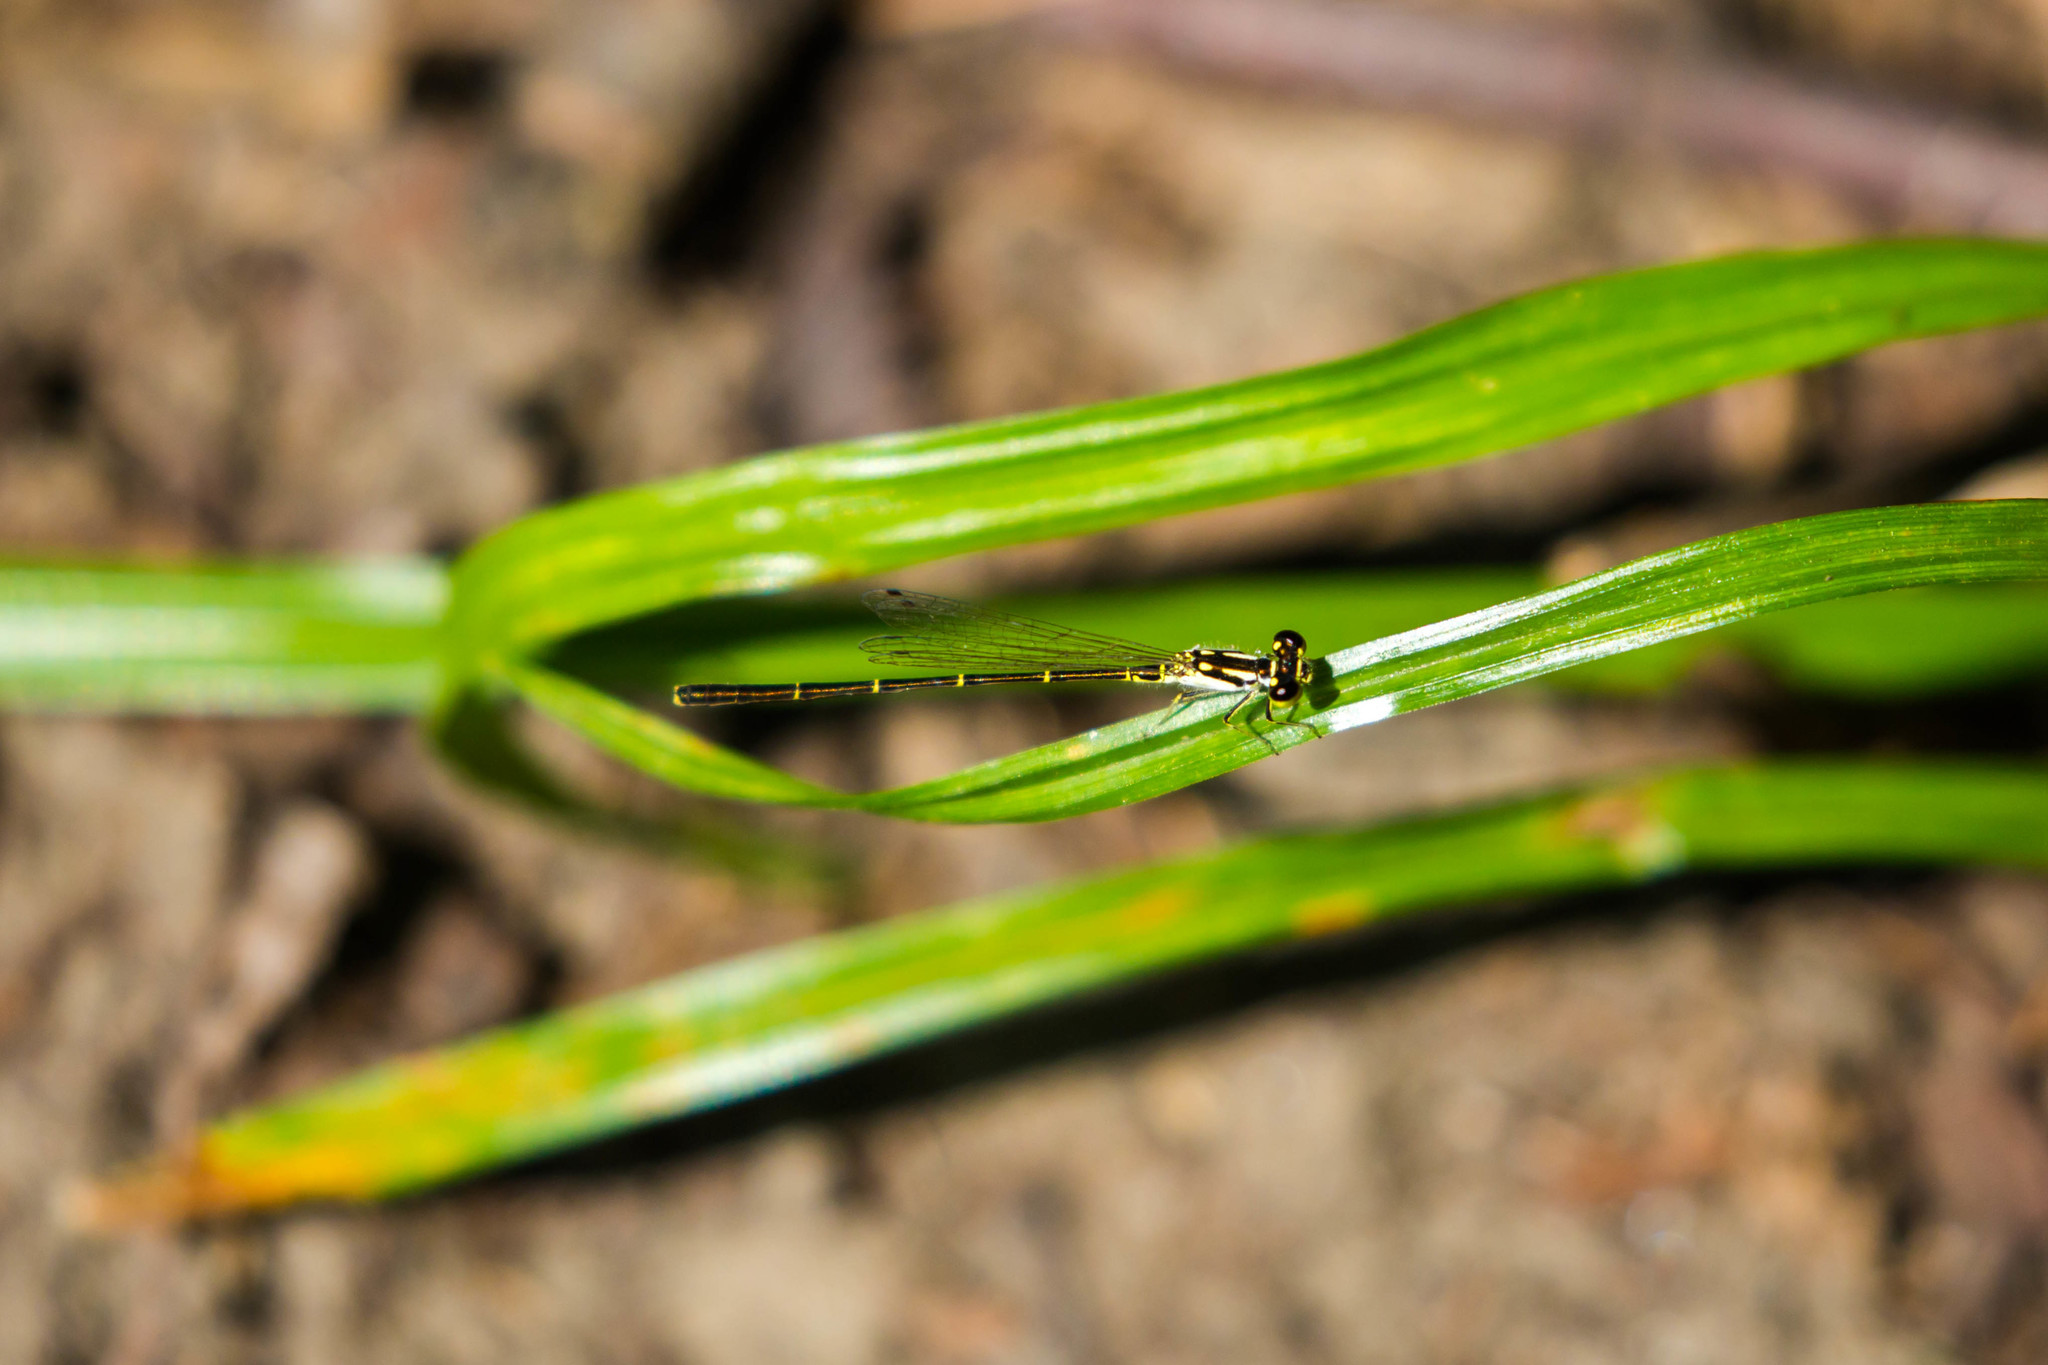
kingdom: Animalia
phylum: Arthropoda
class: Insecta
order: Odonata
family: Coenagrionidae
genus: Ischnura
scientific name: Ischnura posita
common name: Fragile forktail
